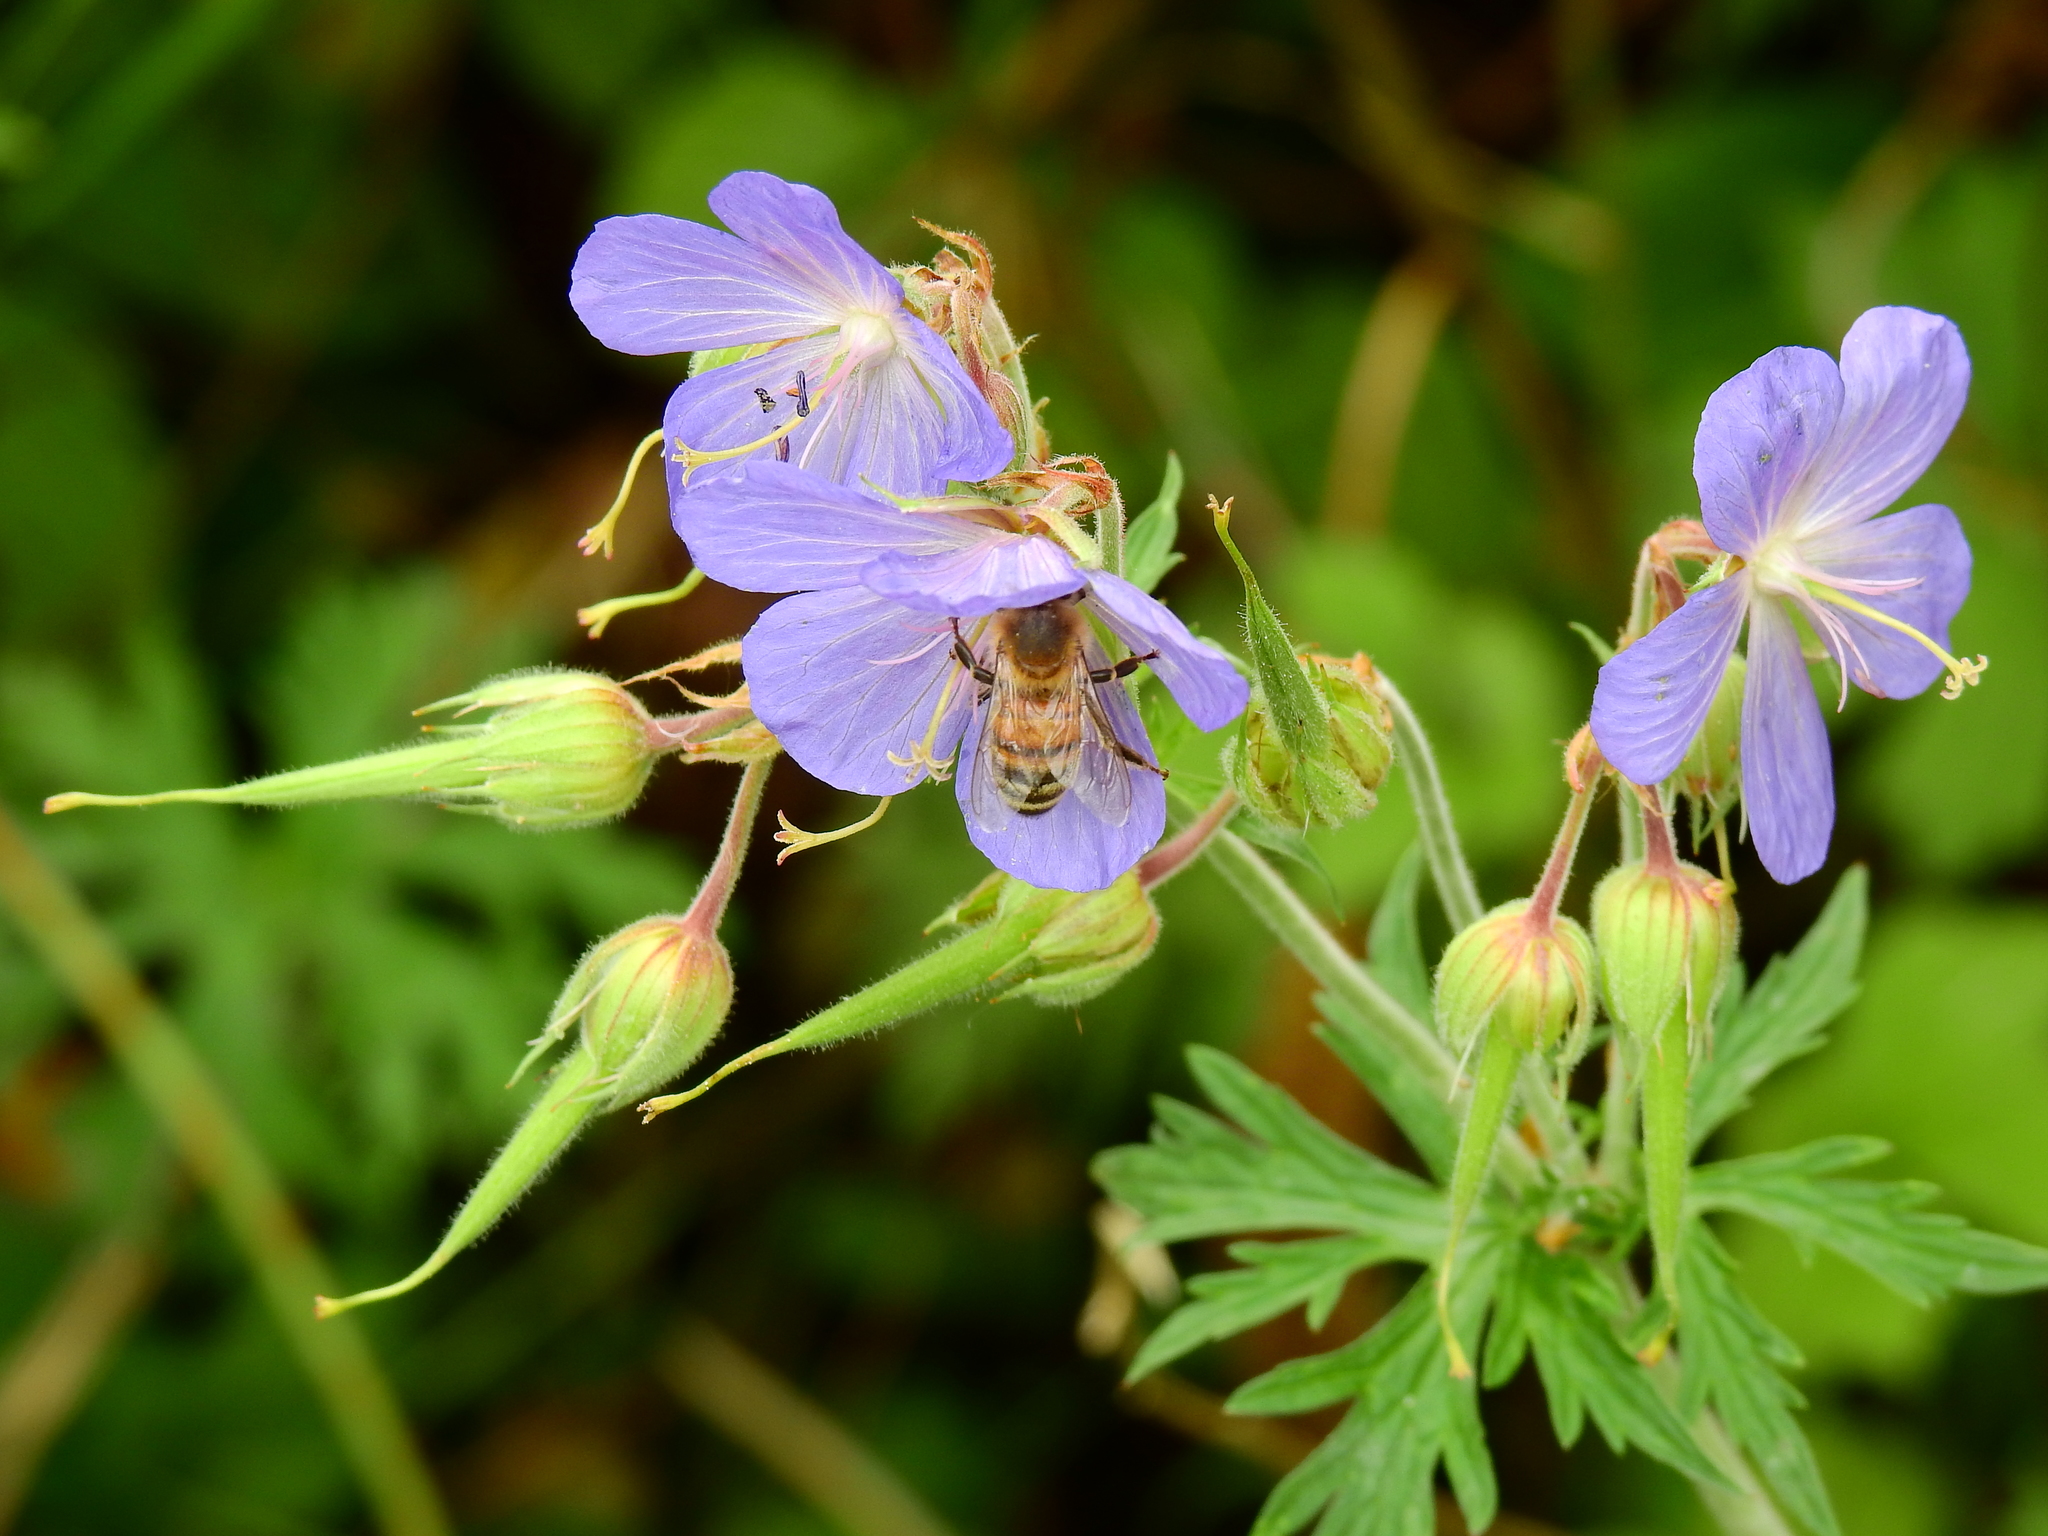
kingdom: Animalia
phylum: Arthropoda
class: Insecta
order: Hymenoptera
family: Apidae
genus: Apis
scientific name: Apis mellifera
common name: Honey bee
